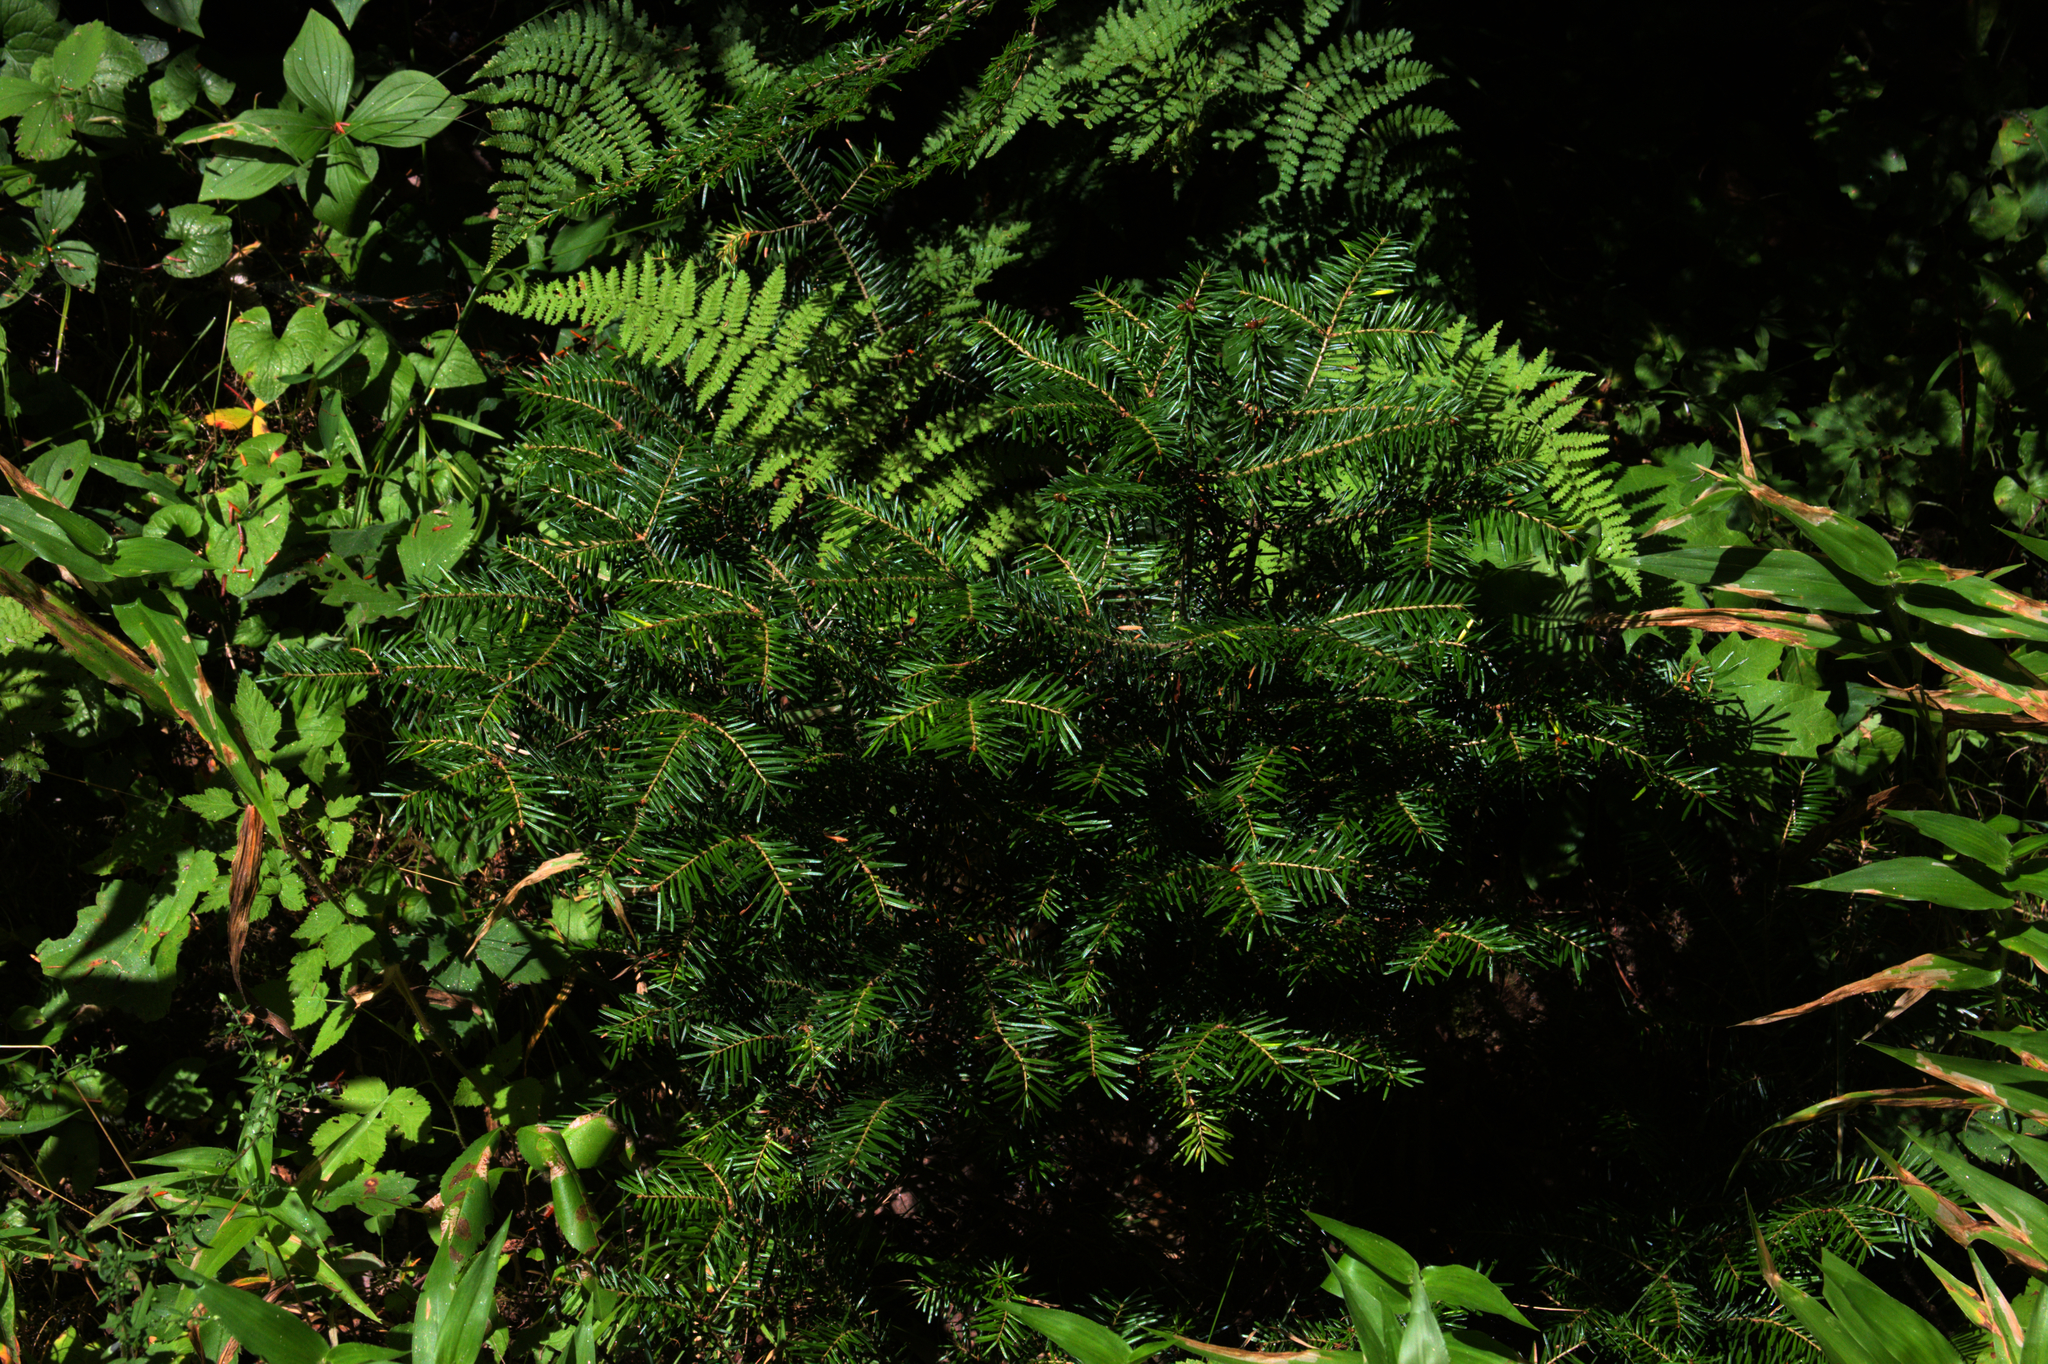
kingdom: Plantae
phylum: Tracheophyta
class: Pinopsida
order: Pinales
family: Pinaceae
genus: Abies
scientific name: Abies balsamea
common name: Balsam fir
